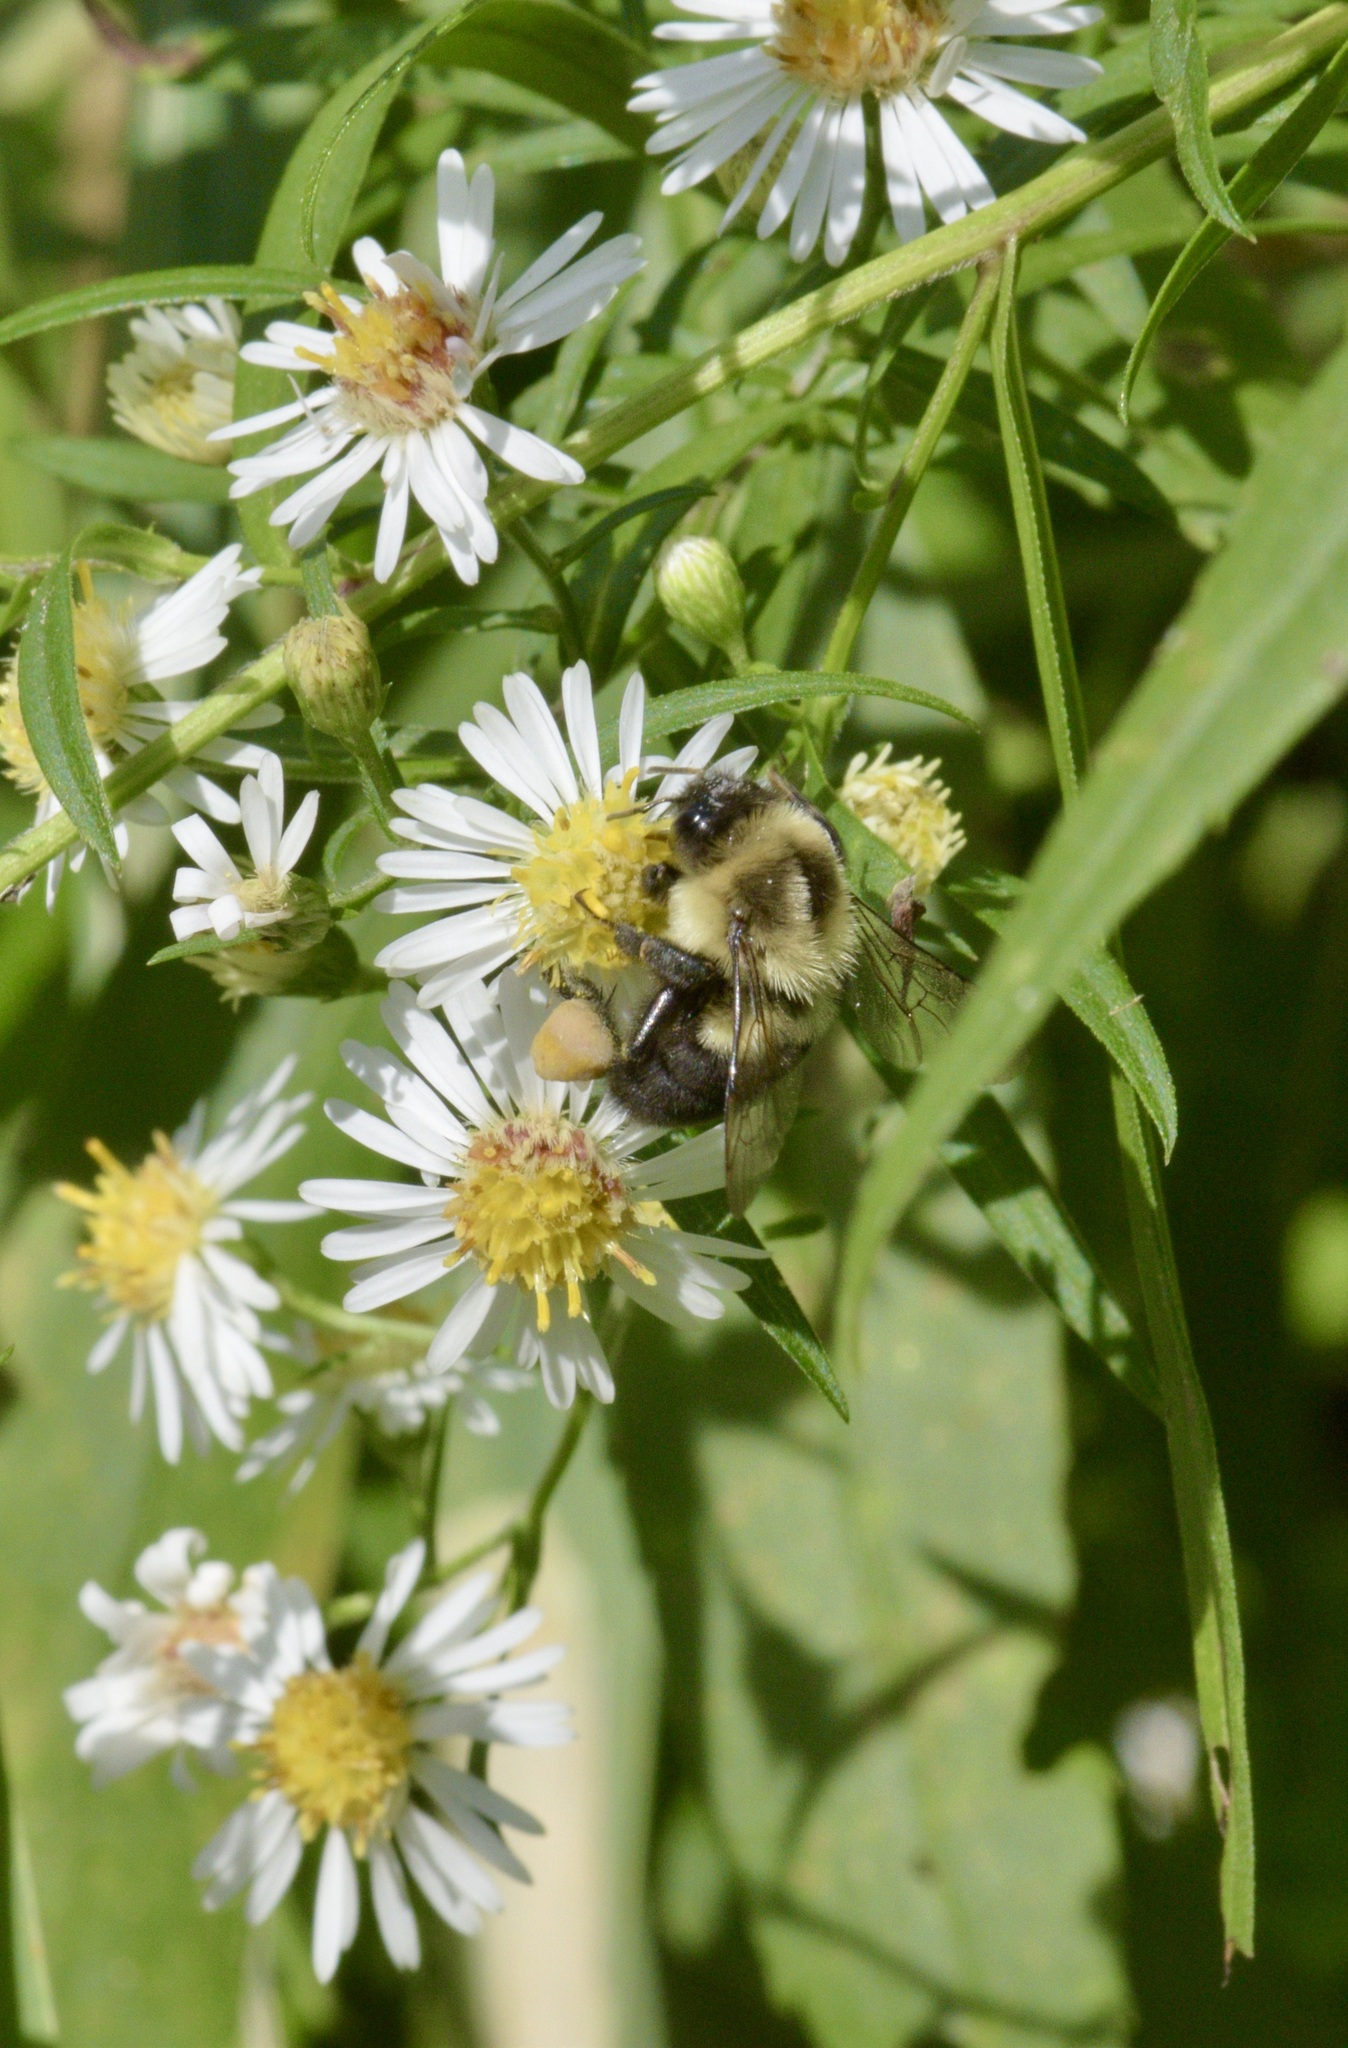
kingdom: Animalia
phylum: Arthropoda
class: Insecta
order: Hymenoptera
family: Apidae
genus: Bombus
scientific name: Bombus impatiens
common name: Common eastern bumble bee
